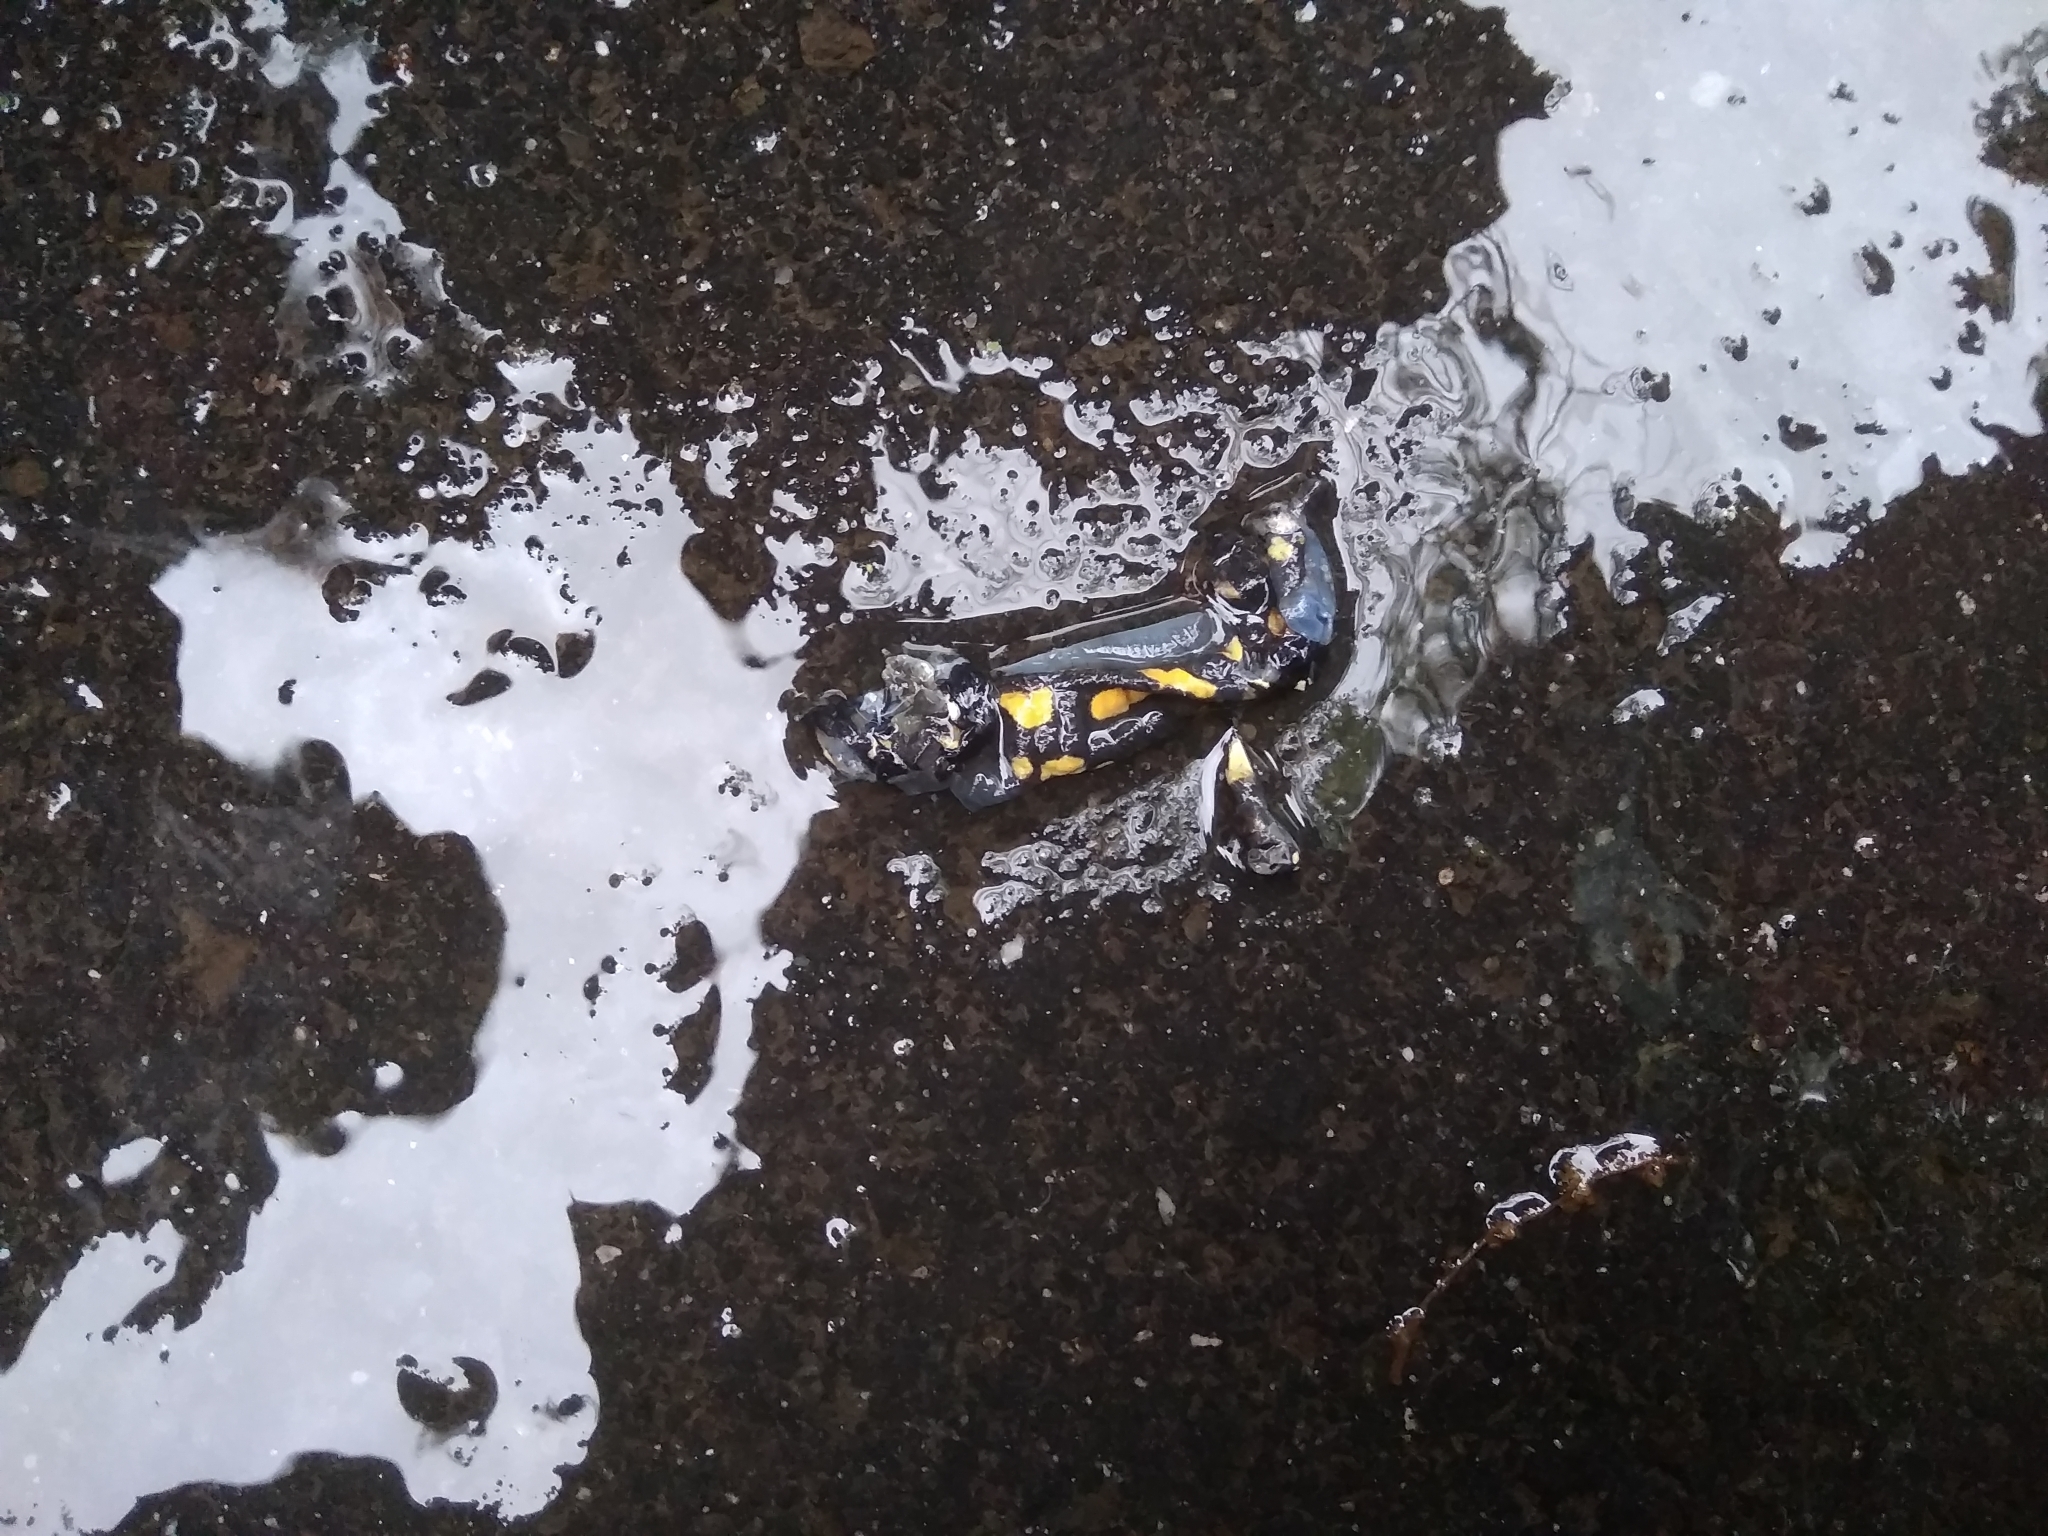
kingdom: Animalia
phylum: Chordata
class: Amphibia
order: Caudata
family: Salamandridae
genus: Salamandra
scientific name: Salamandra salamandra
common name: Fire salamander
